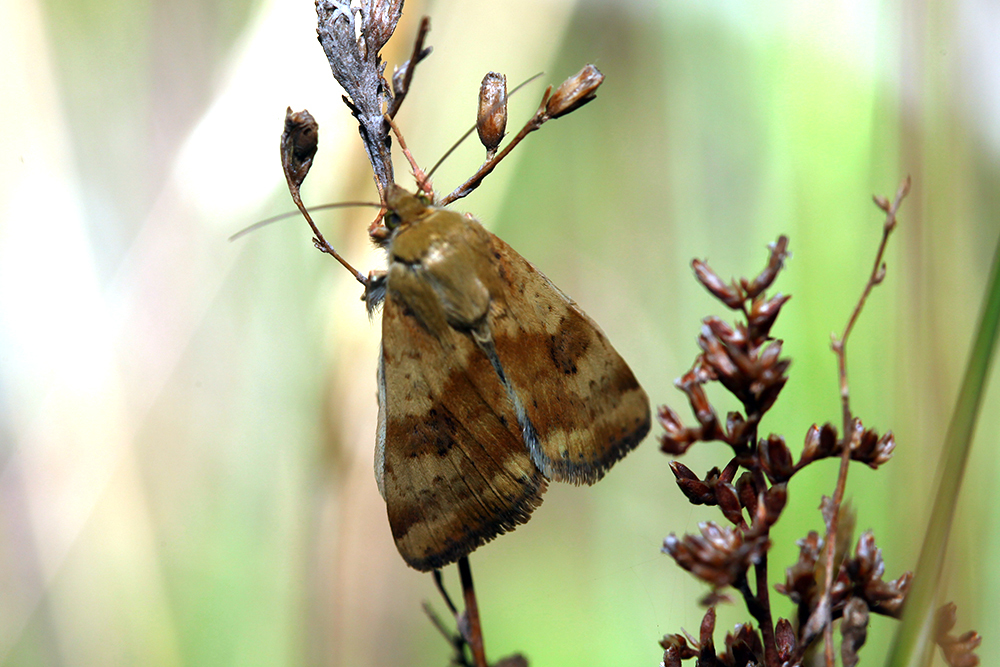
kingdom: Animalia
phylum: Arthropoda
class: Insecta
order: Lepidoptera
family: Noctuidae
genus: Heliothis
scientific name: Heliothis adaucta
